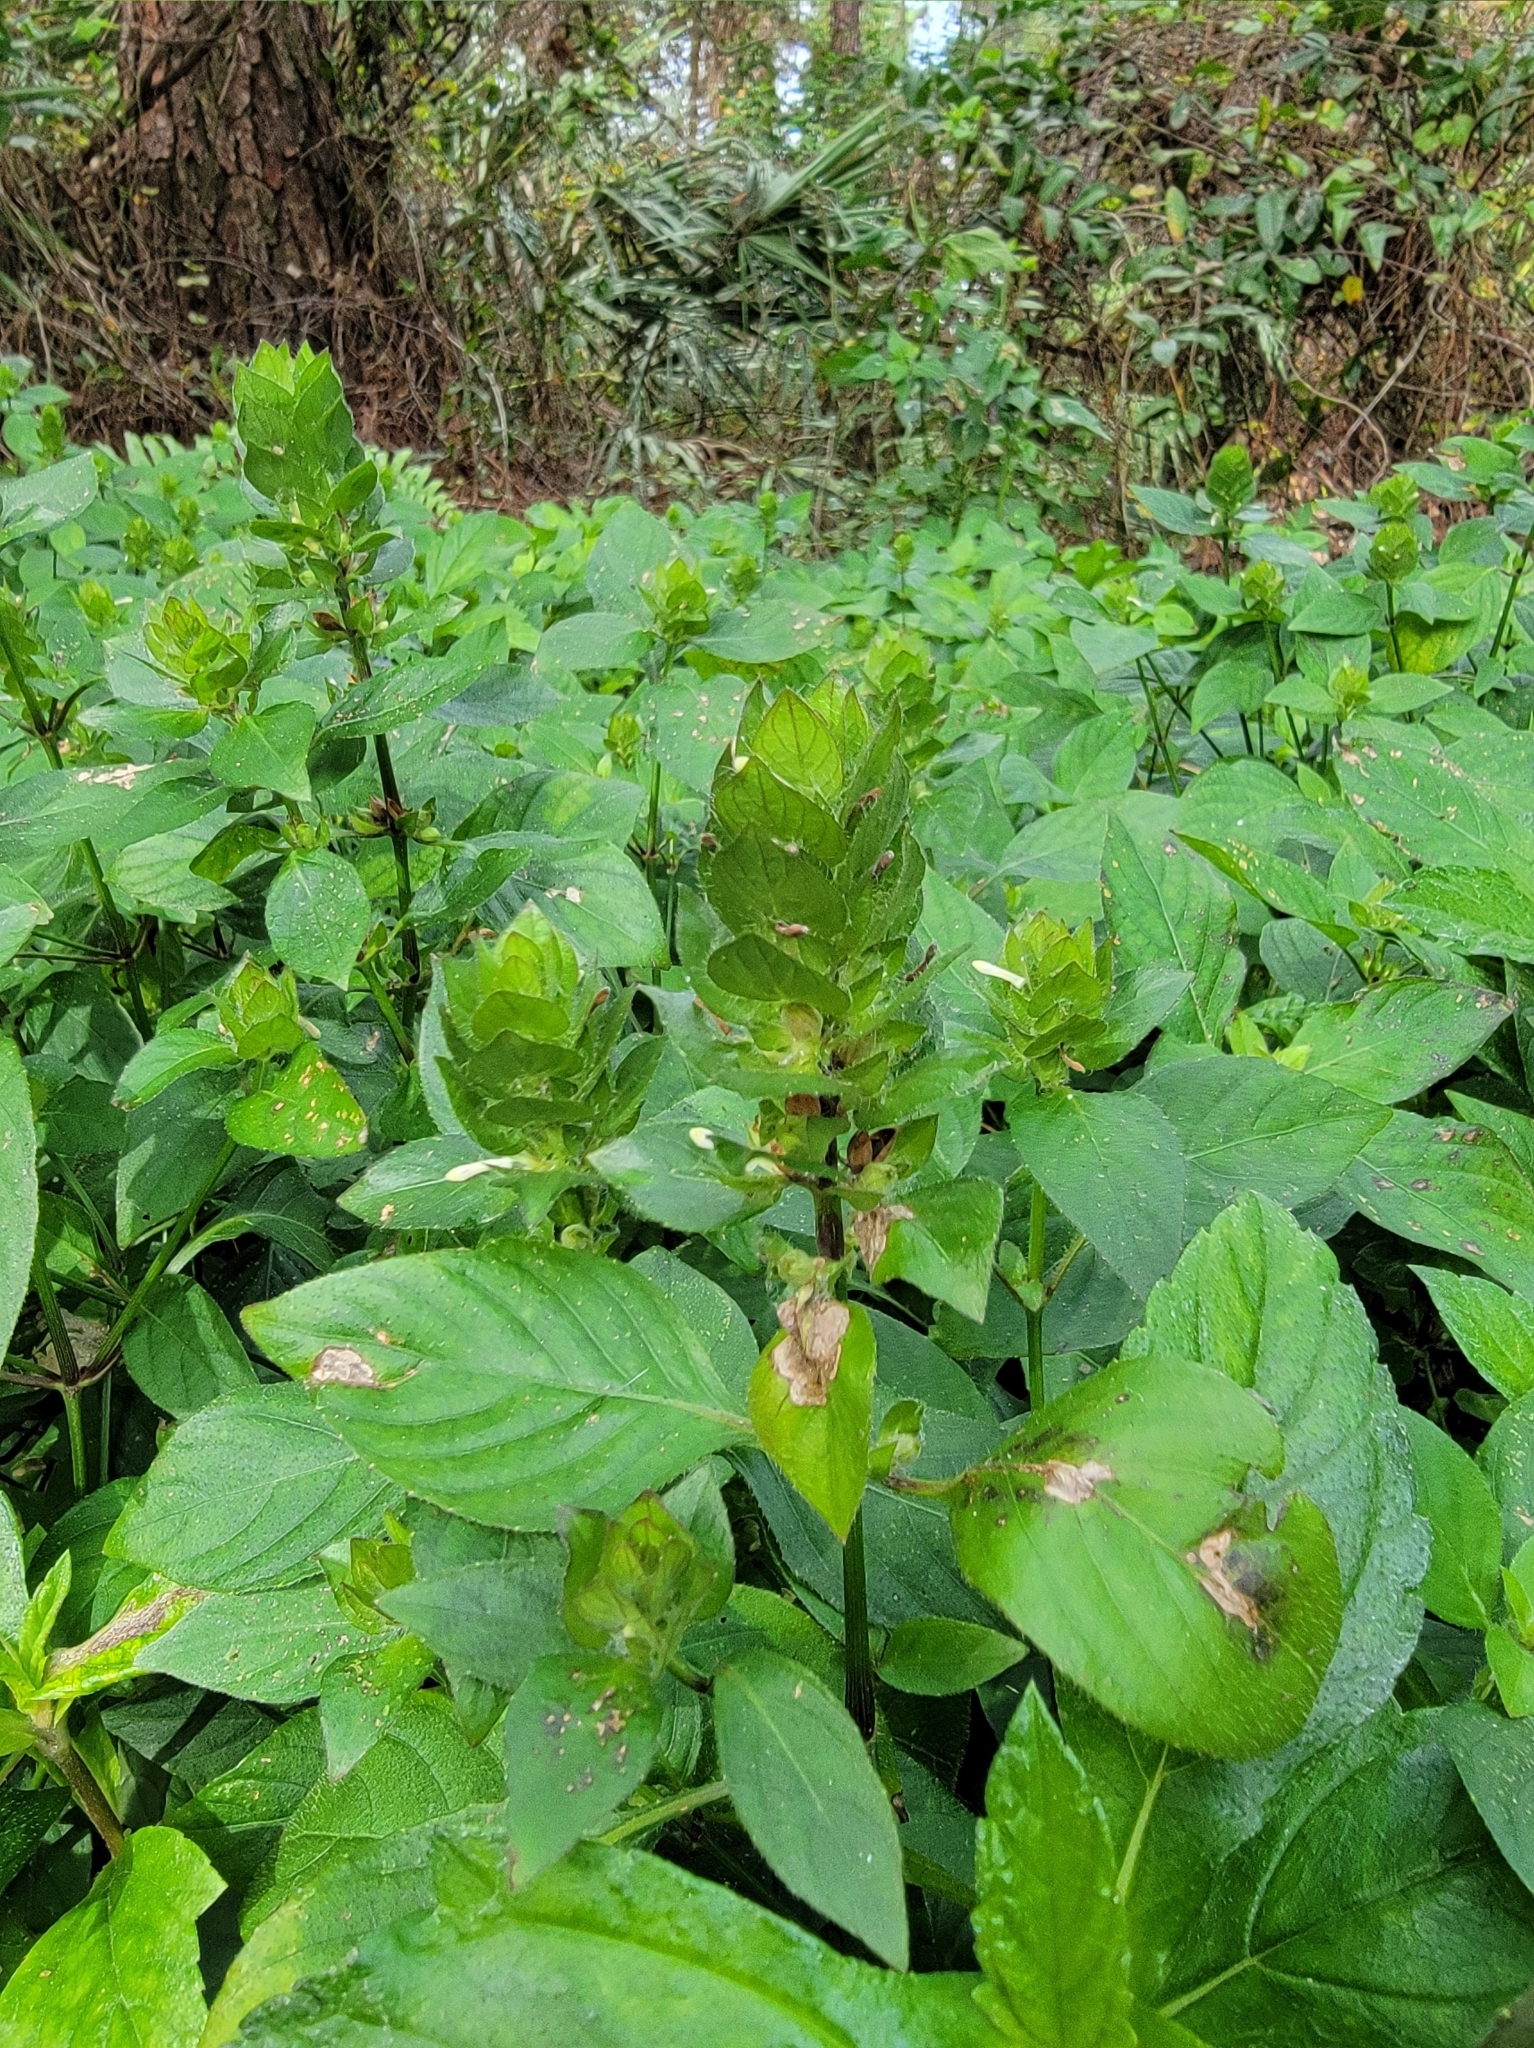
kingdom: Plantae
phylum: Tracheophyta
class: Magnoliopsida
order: Lamiales
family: Acanthaceae
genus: Ruellia
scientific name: Ruellia blechum
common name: Browne's blechum
